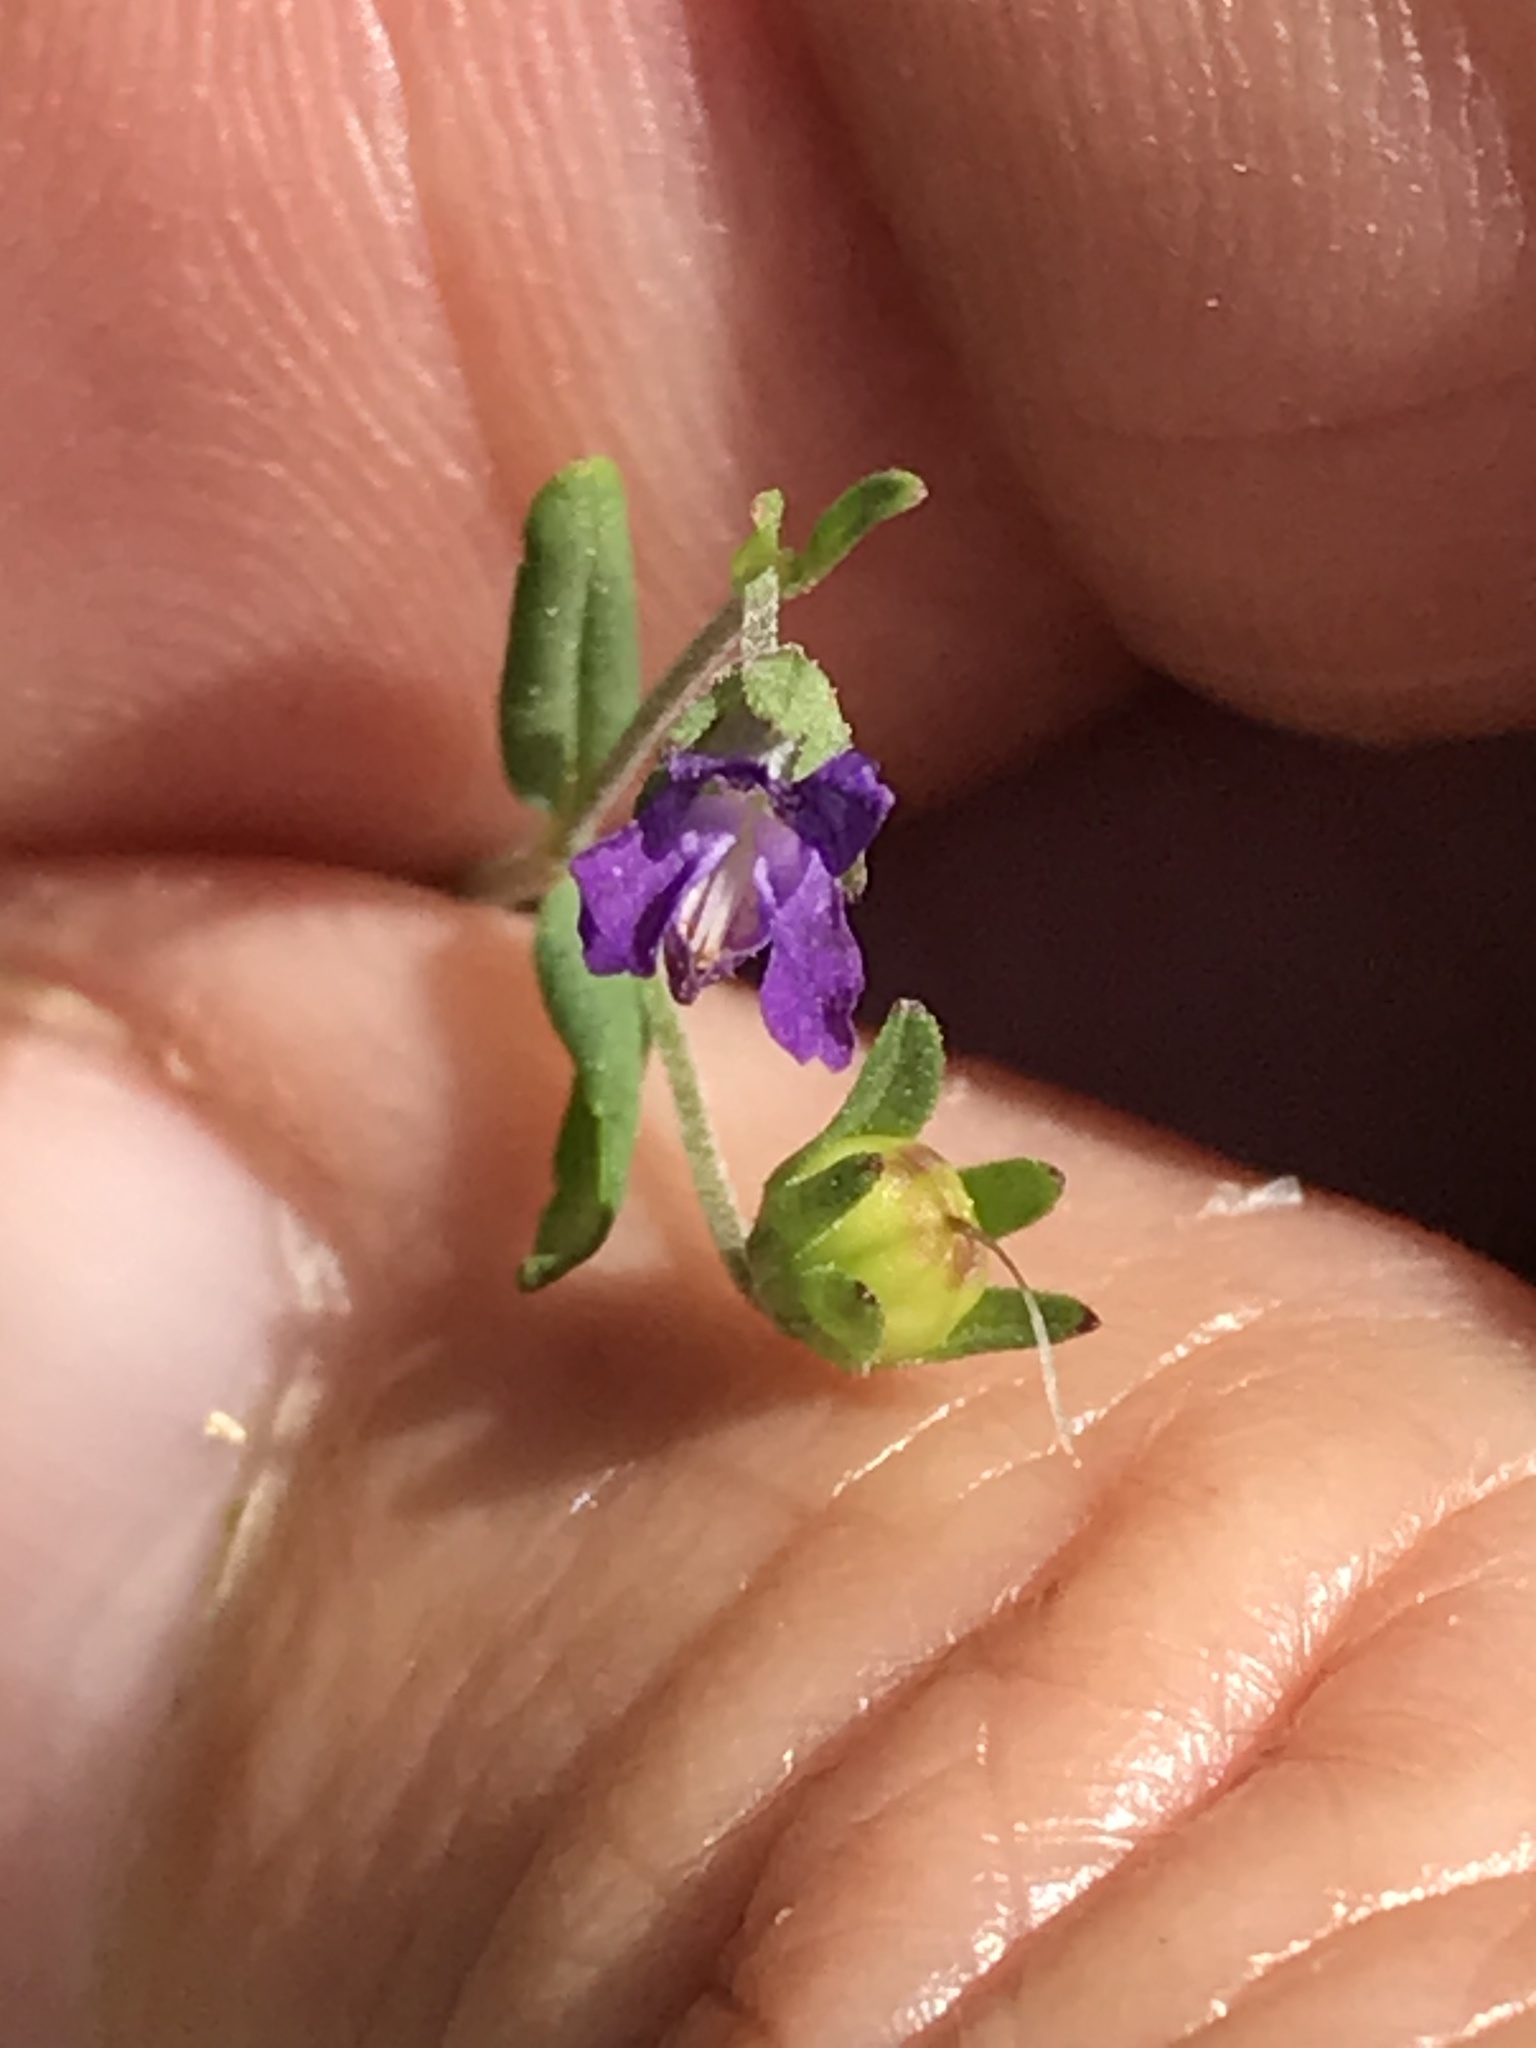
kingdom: Plantae
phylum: Tracheophyta
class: Magnoliopsida
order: Lamiales
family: Plantaginaceae
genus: Collinsia
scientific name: Collinsia parryi
